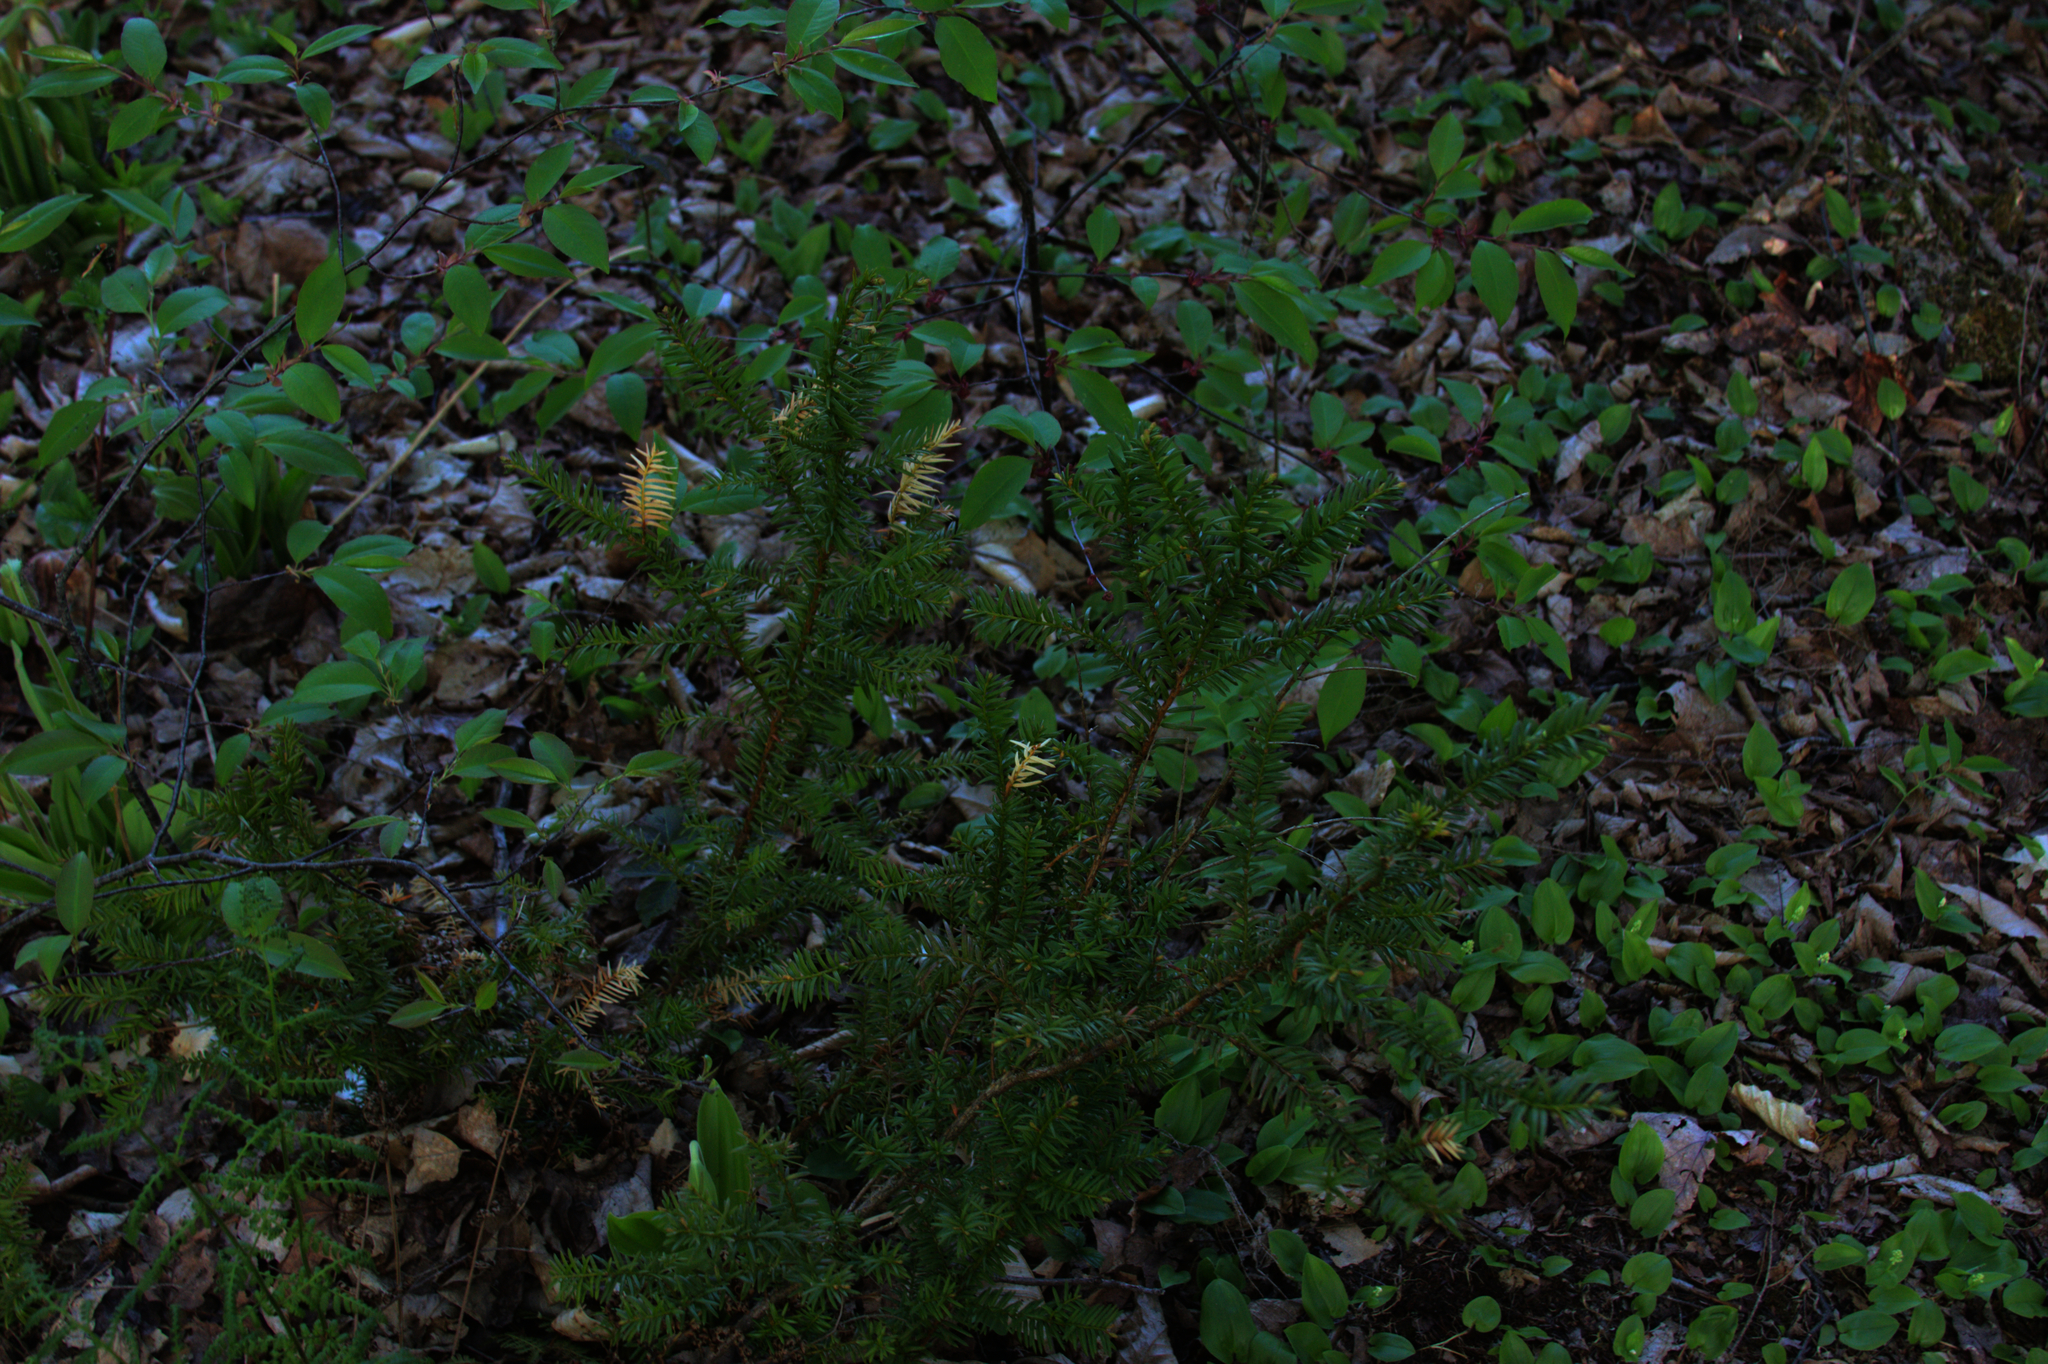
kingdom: Plantae
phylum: Tracheophyta
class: Liliopsida
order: Asparagales
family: Asparagaceae
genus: Maianthemum
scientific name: Maianthemum canadense
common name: False lily-of-the-valley
